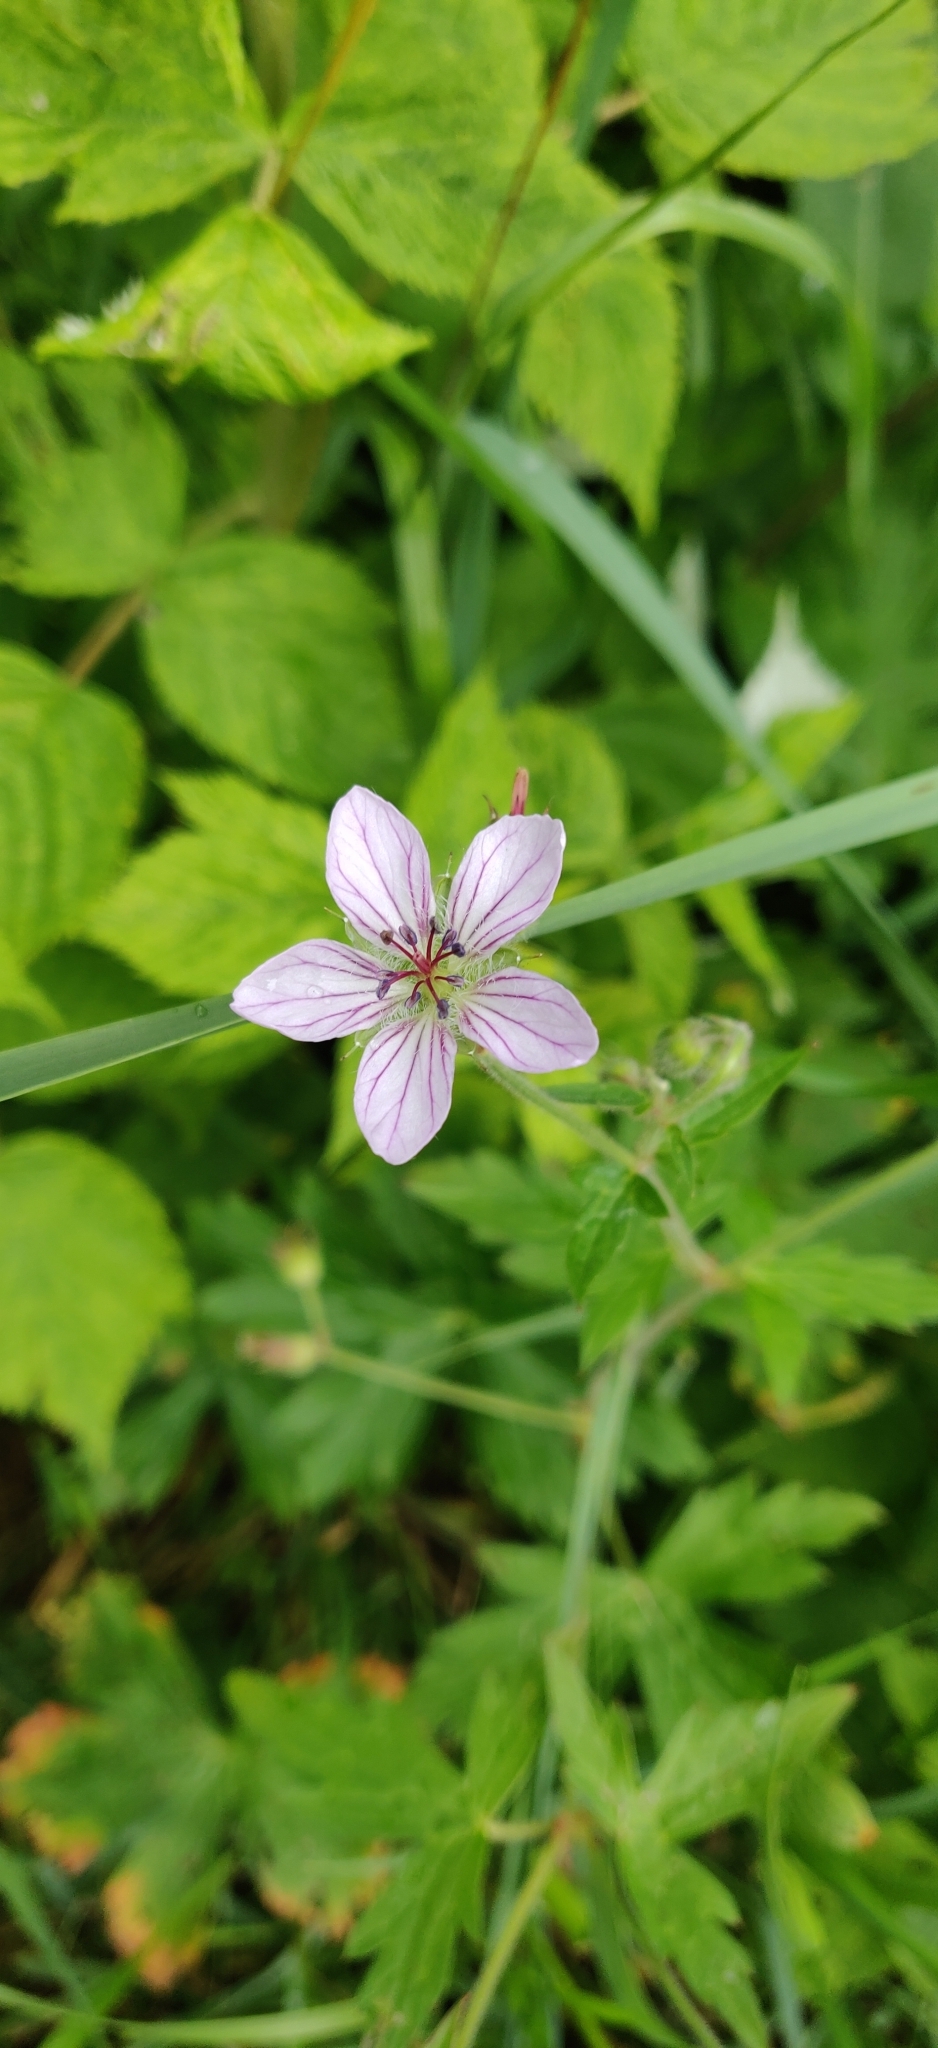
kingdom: Plantae
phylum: Tracheophyta
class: Magnoliopsida
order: Geraniales
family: Geraniaceae
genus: Geranium
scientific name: Geranium richardsonii
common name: Richardson's crane's-bill
